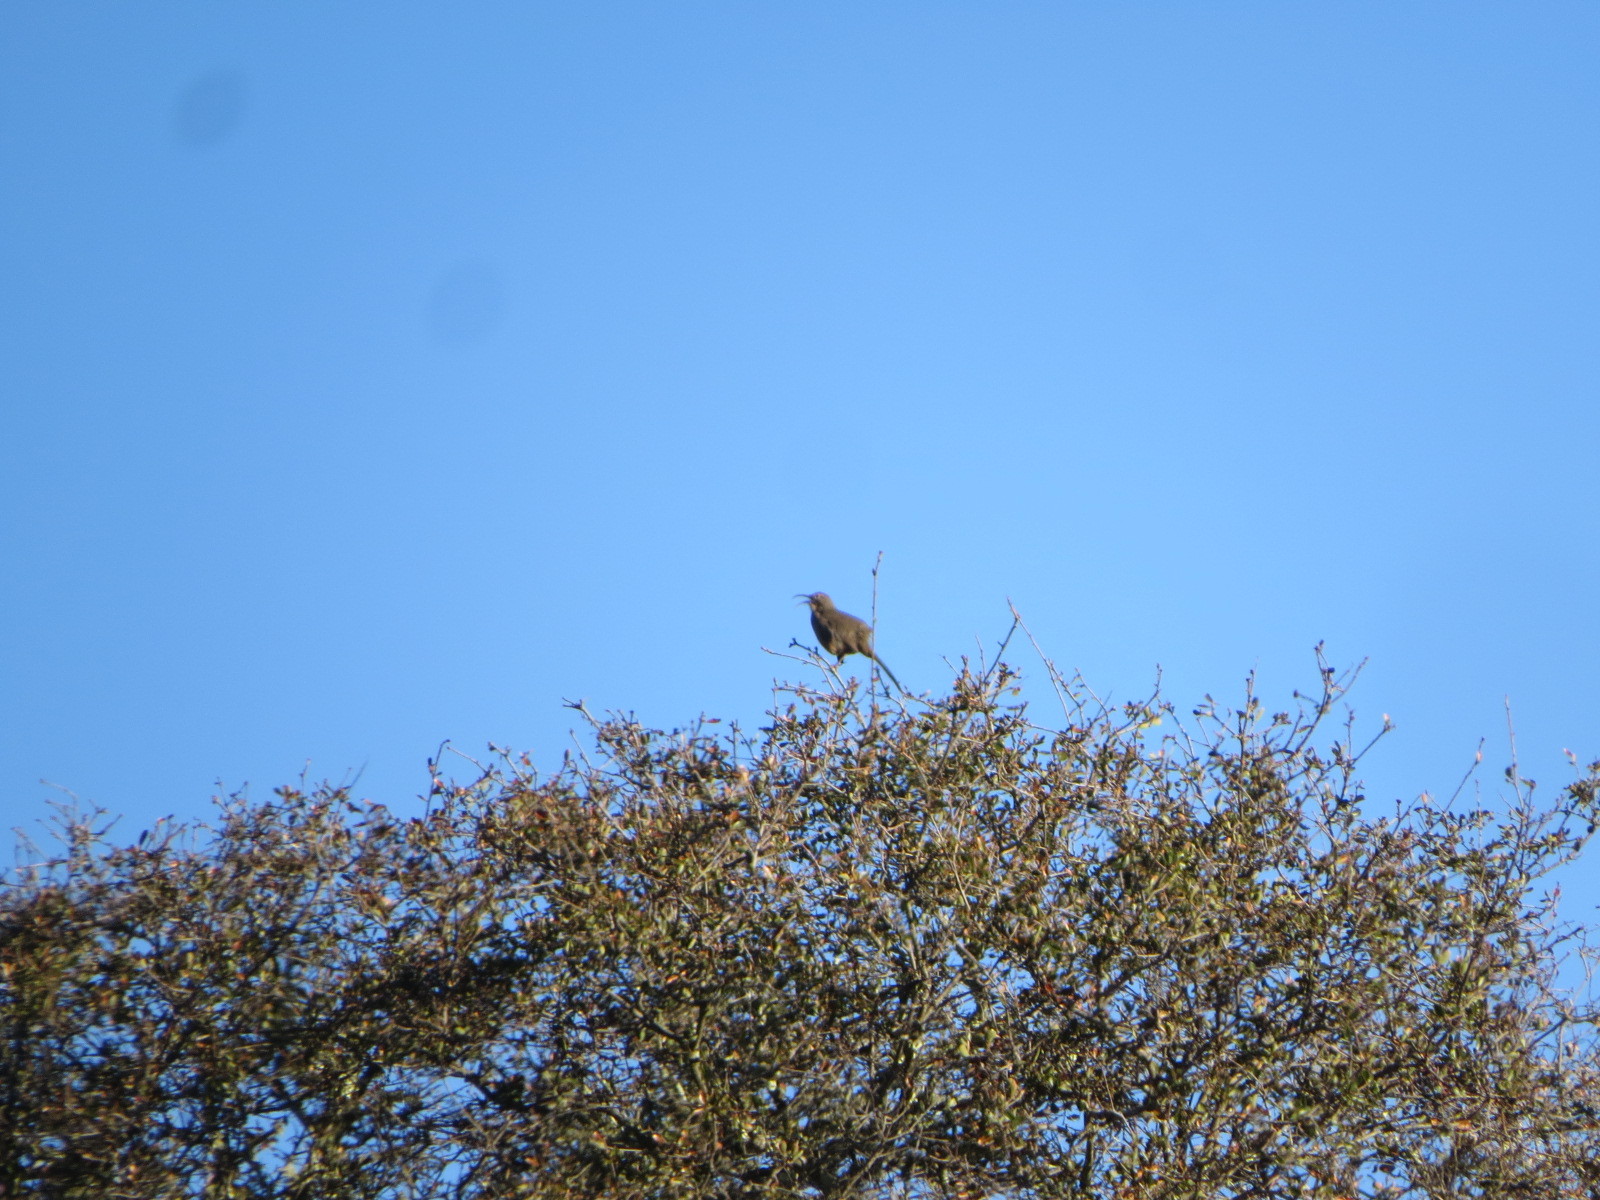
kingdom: Animalia
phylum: Chordata
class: Aves
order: Passeriformes
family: Mimidae
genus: Toxostoma
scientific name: Toxostoma redivivum
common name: California thrasher
